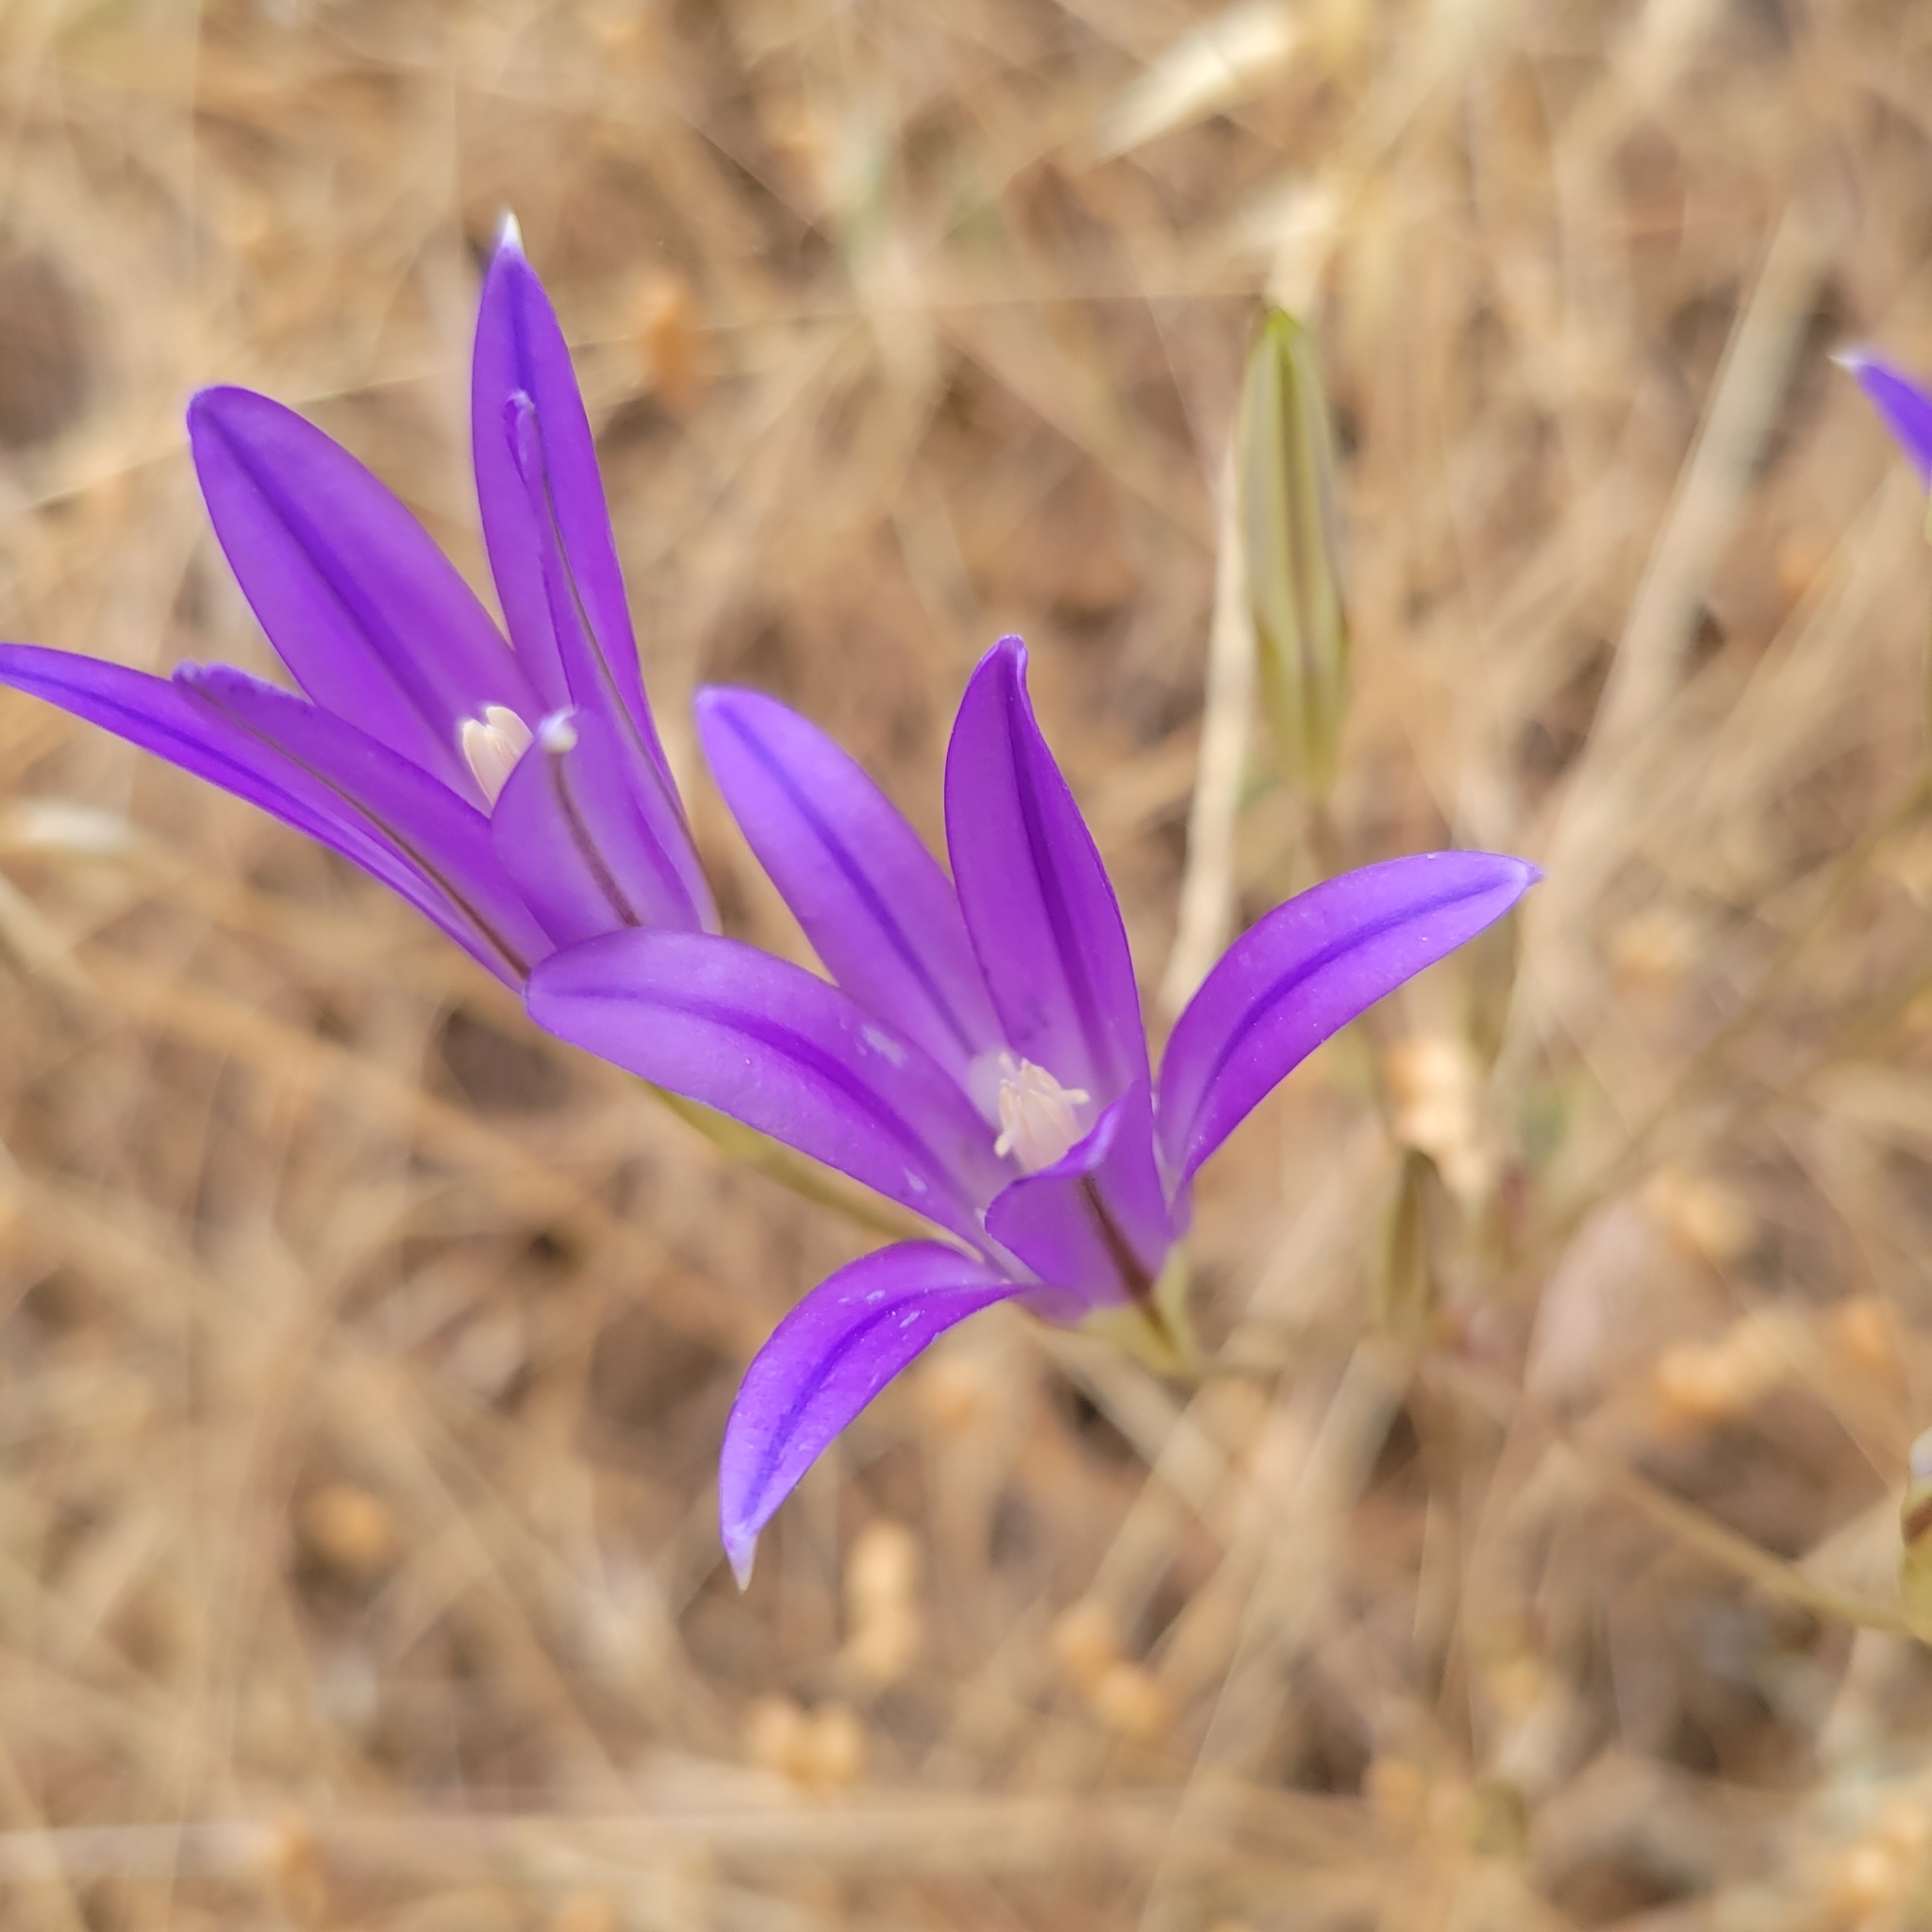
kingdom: Plantae
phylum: Tracheophyta
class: Liliopsida
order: Asparagales
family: Asparagaceae
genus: Brodiaea
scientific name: Brodiaea elegans
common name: Elegant cluster-lily
